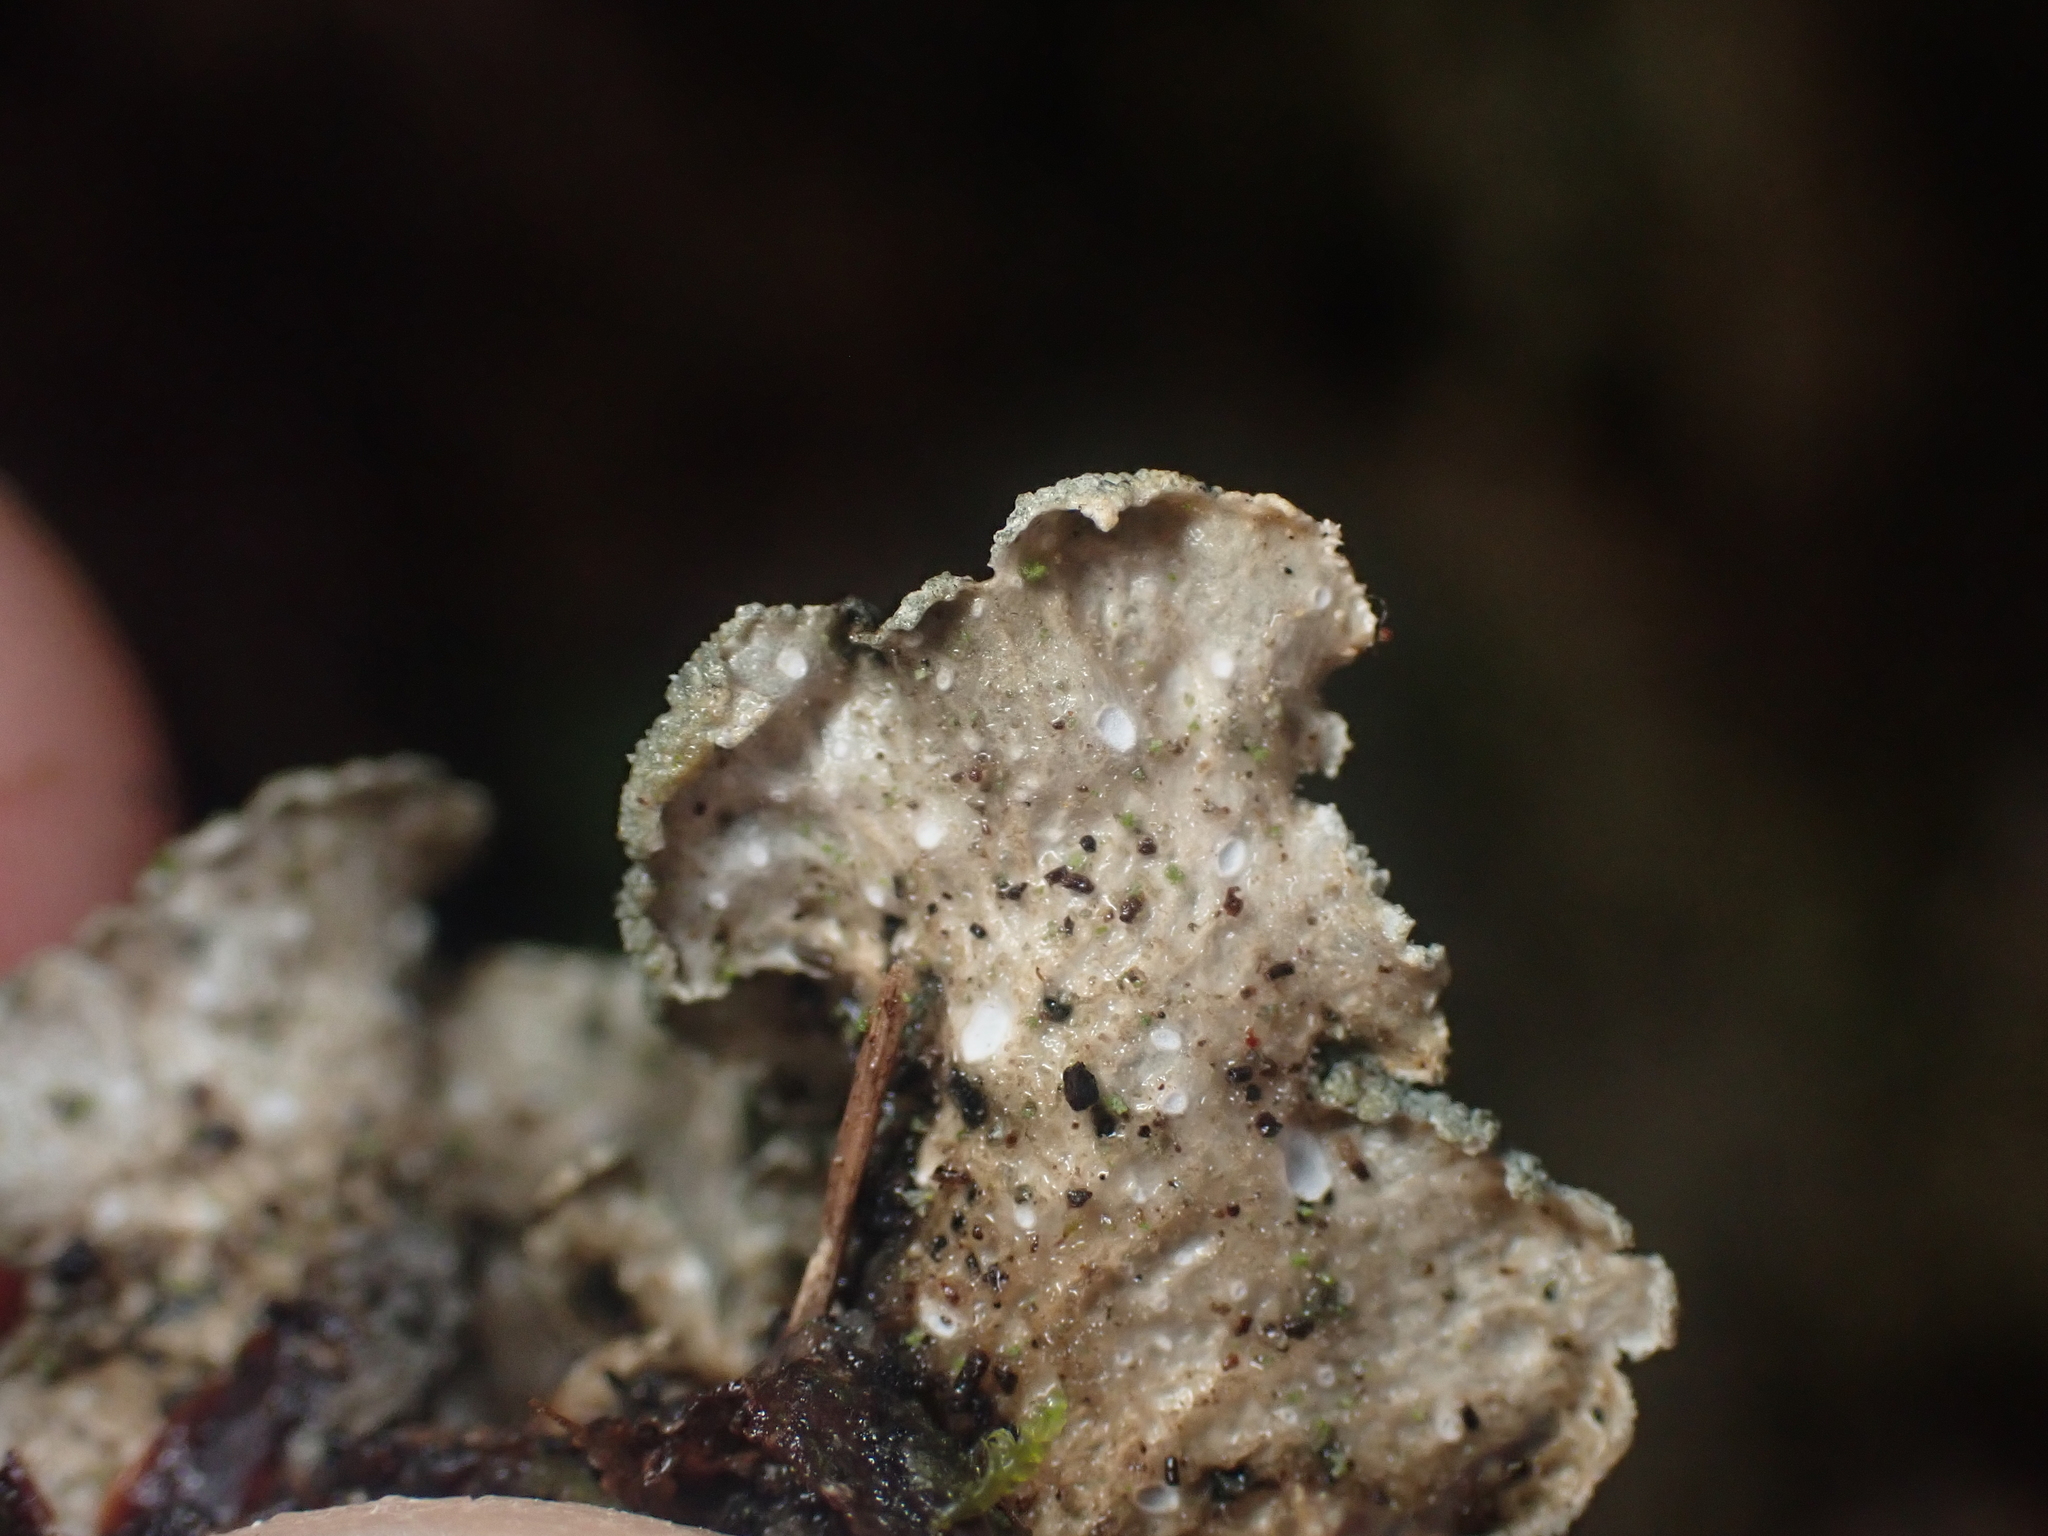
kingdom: Fungi
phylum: Ascomycota
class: Lecanoromycetes
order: Peltigerales
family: Lobariaceae
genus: Sticta
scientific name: Sticta limbata
